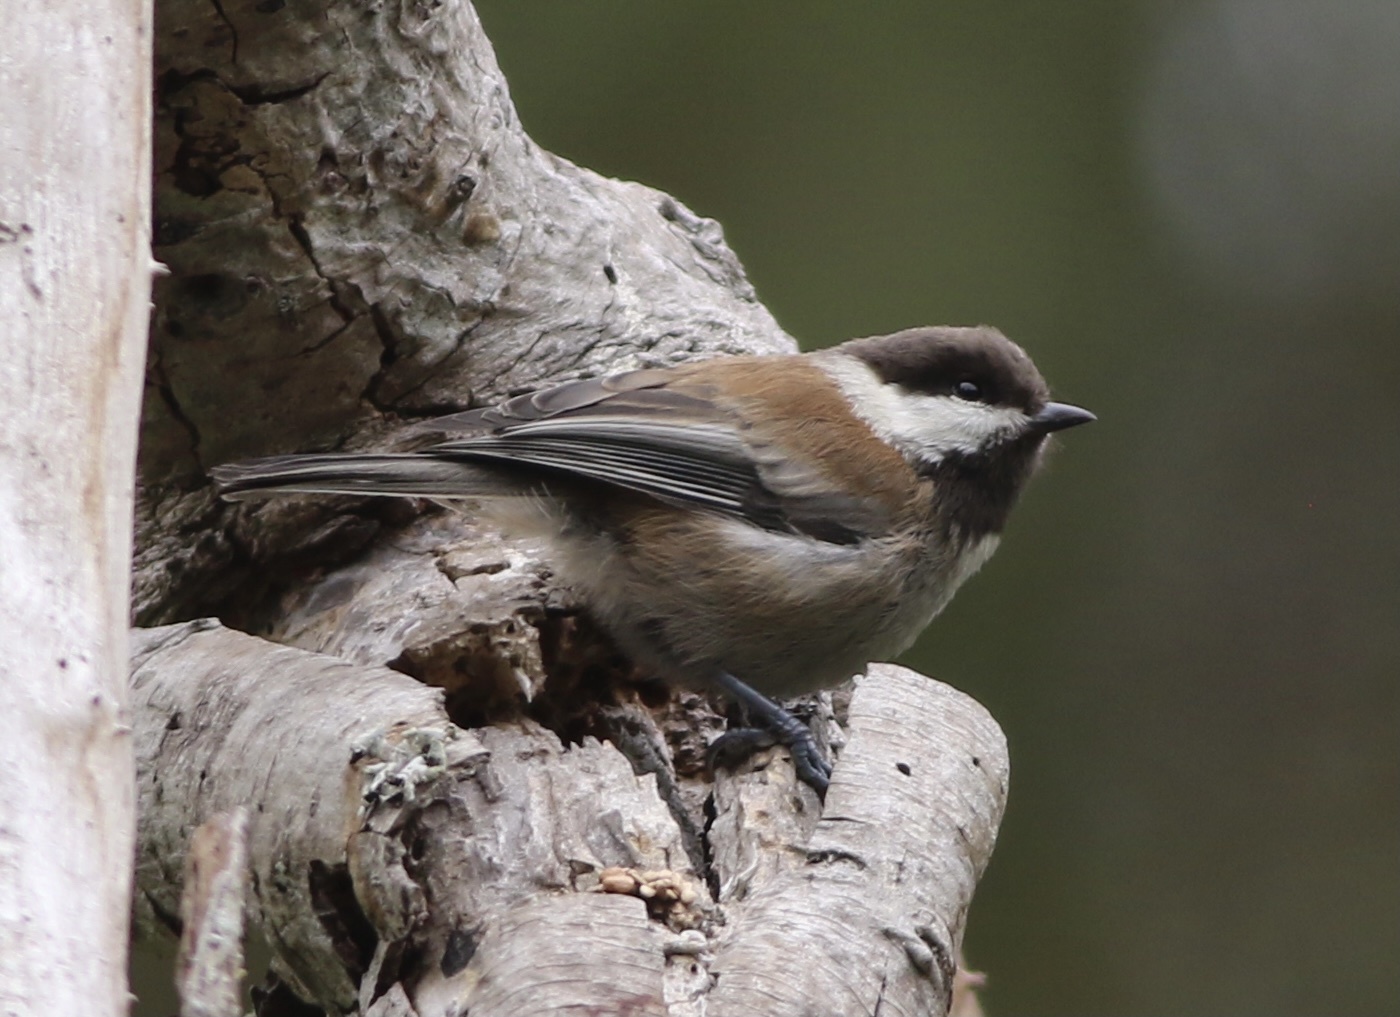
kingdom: Animalia
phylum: Chordata
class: Aves
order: Passeriformes
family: Paridae
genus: Poecile
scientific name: Poecile rufescens
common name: Chestnut-backed chickadee
